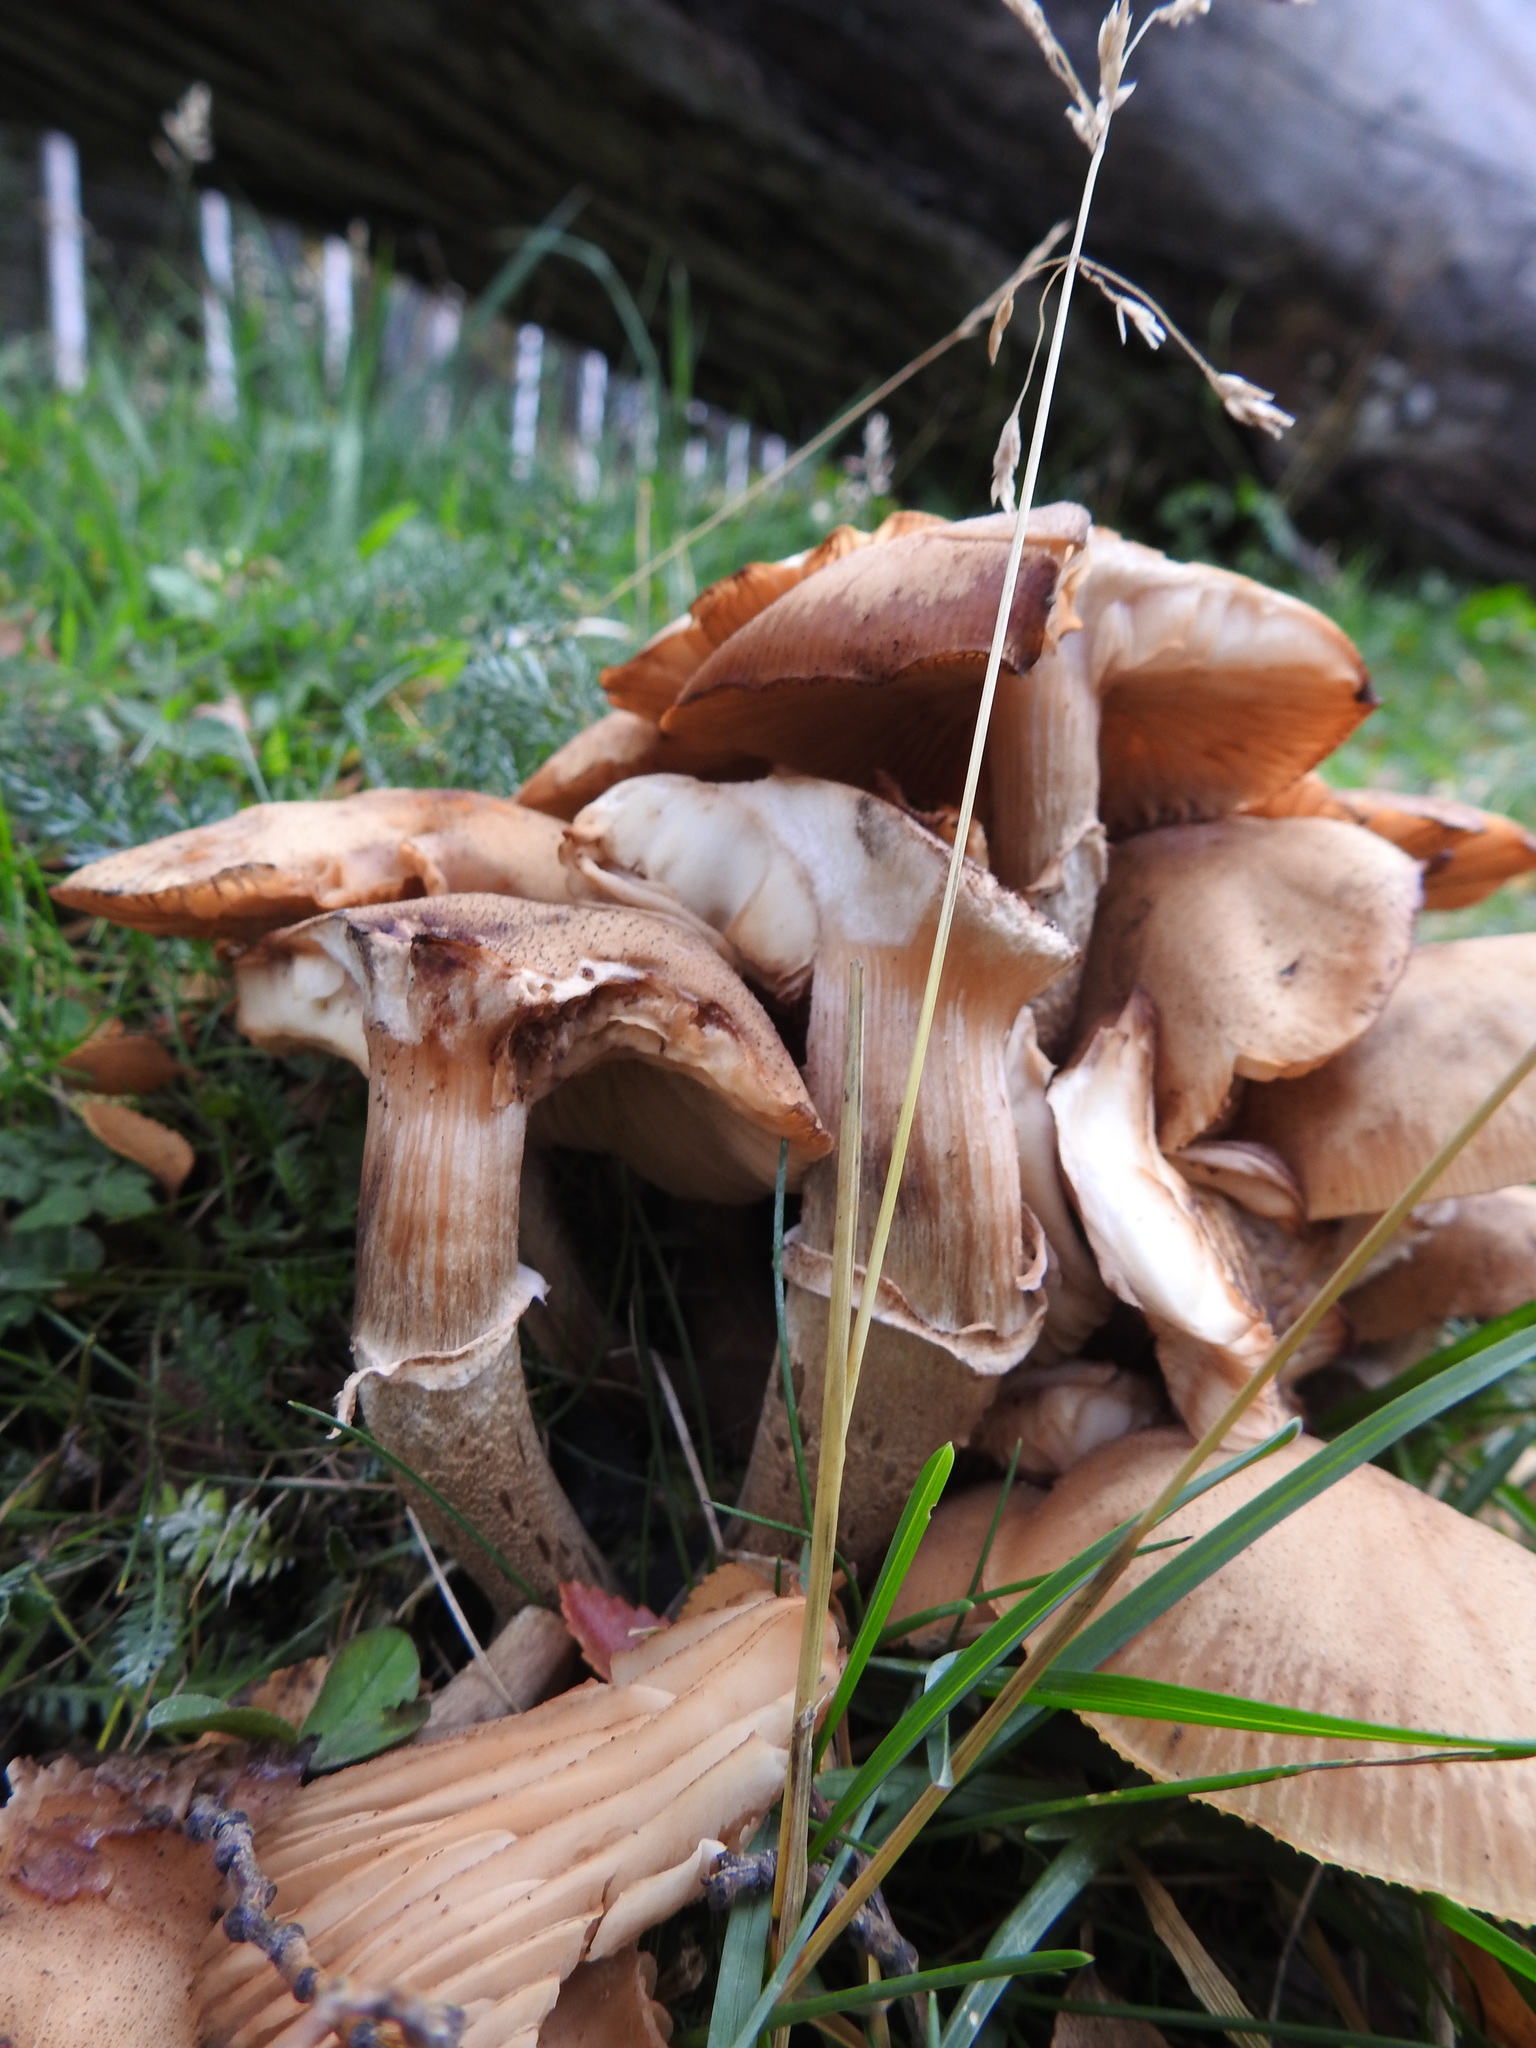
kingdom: Fungi
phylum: Basidiomycota
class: Agaricomycetes
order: Agaricales
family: Physalacriaceae
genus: Armillaria
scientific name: Armillaria mellea
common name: Honey fungus
